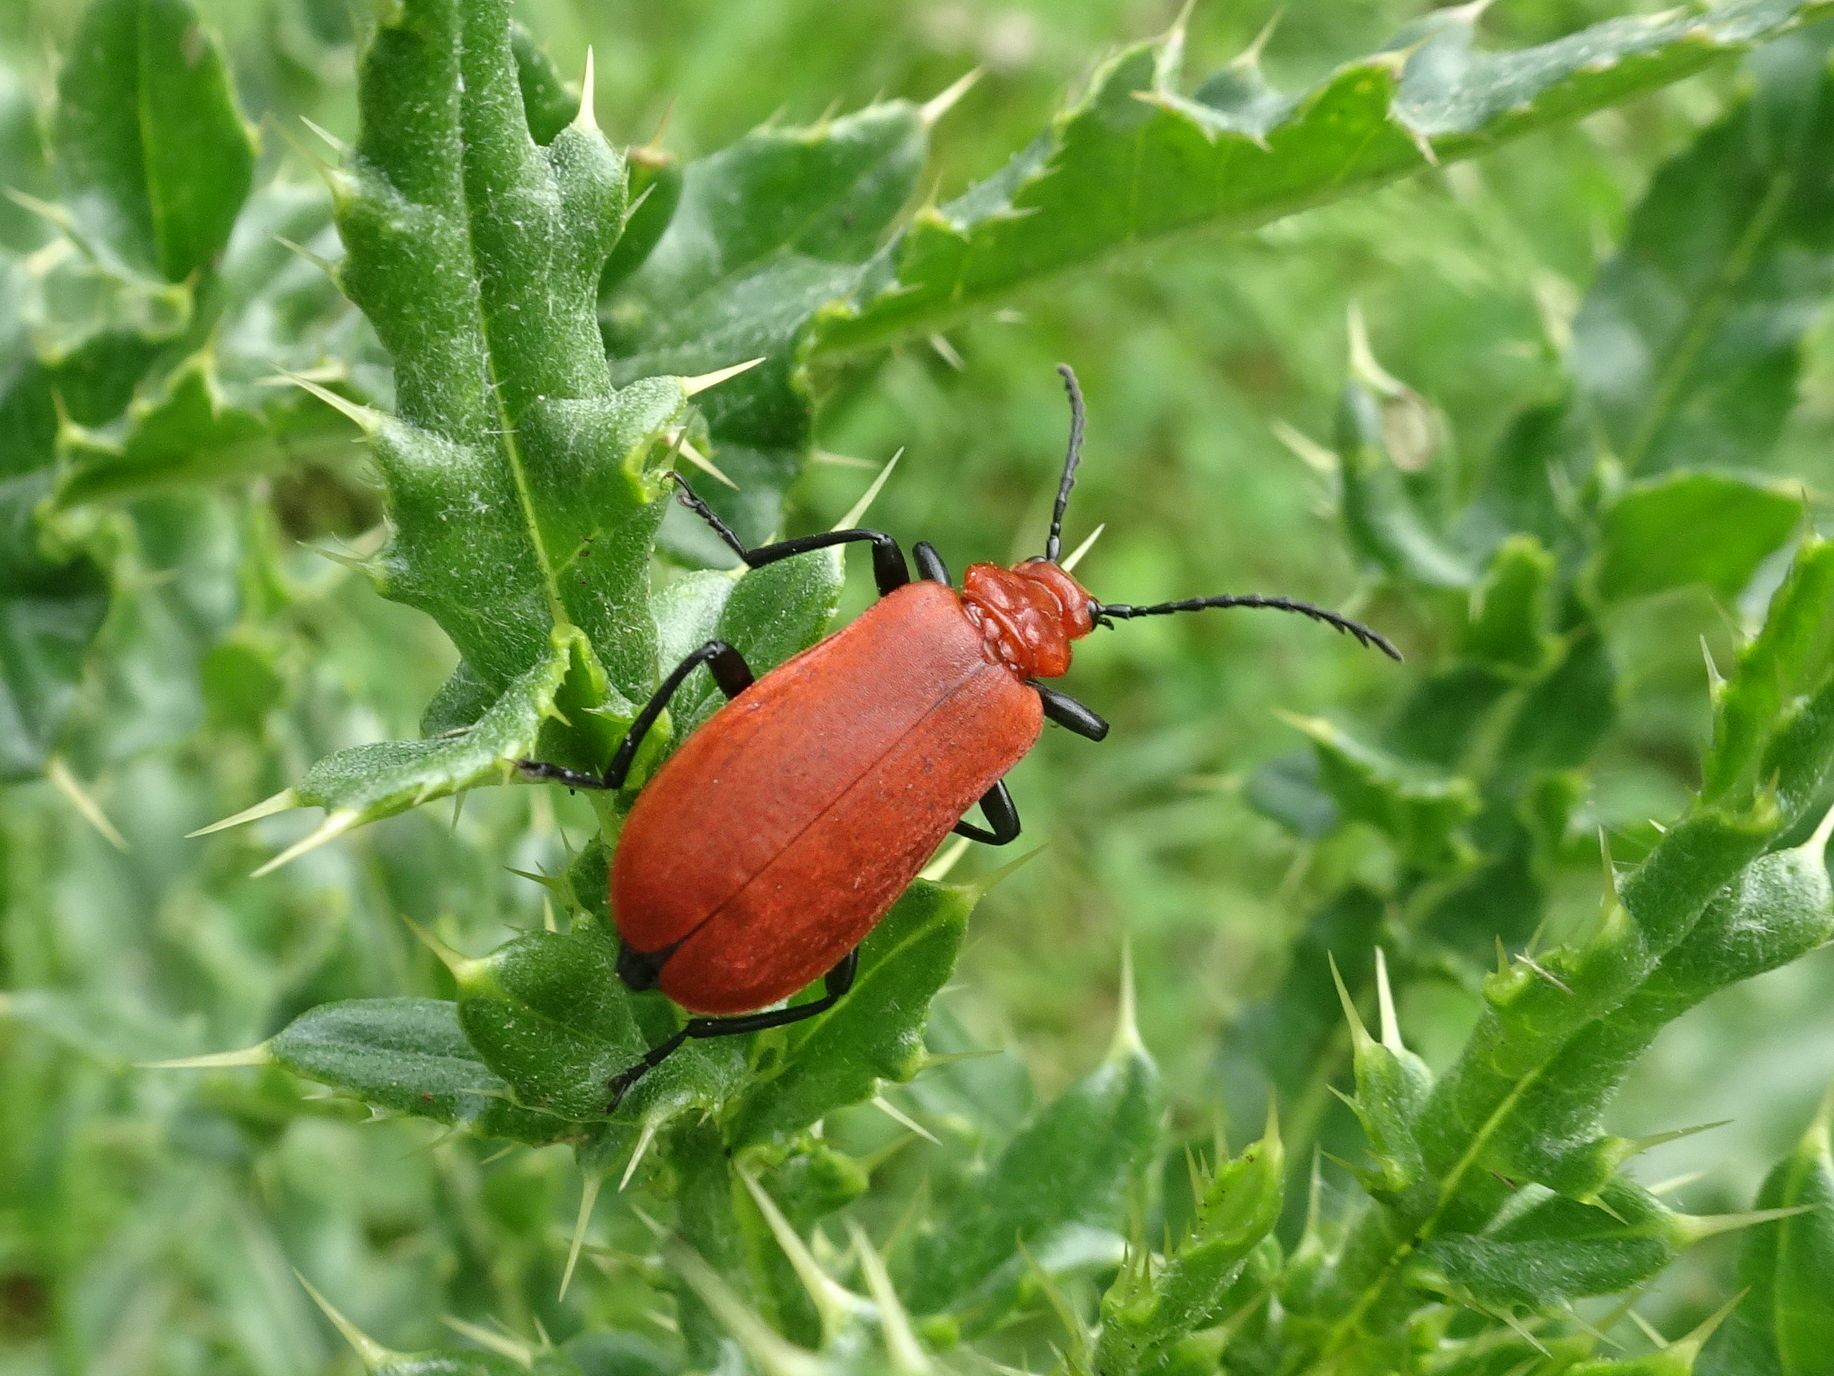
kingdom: Animalia
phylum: Arthropoda
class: Insecta
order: Coleoptera
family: Pyrochroidae
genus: Pyrochroa
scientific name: Pyrochroa serraticornis
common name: Red-headed cardinal beetle
